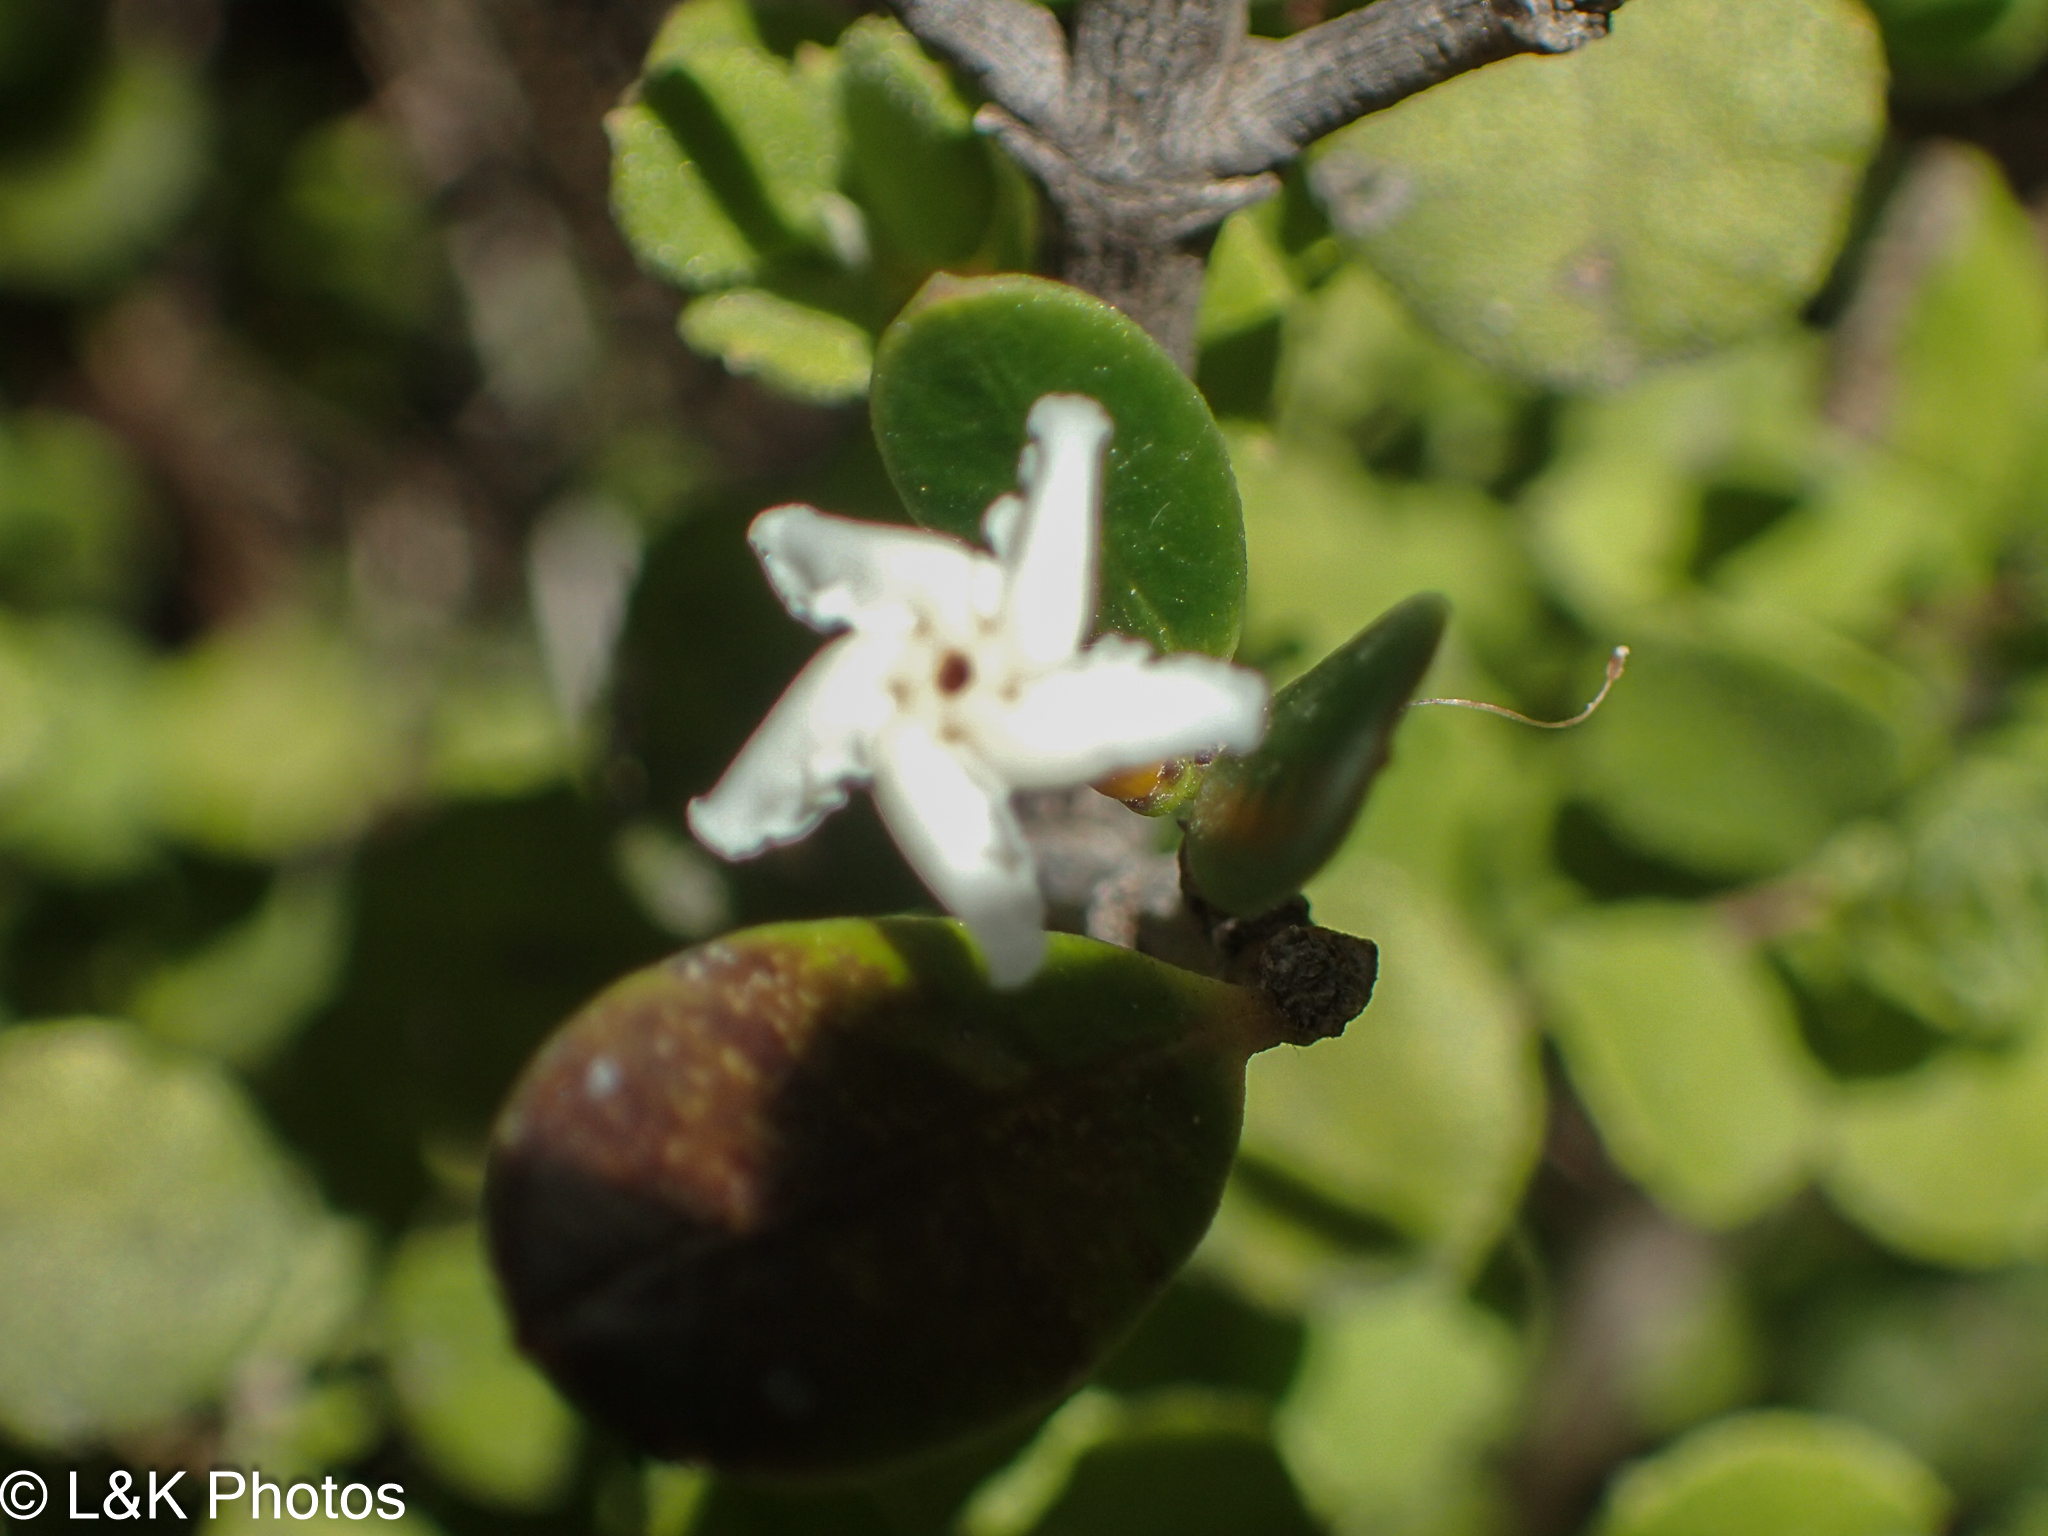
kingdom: Plantae
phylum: Tracheophyta
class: Magnoliopsida
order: Gentianales
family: Apocynaceae
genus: Alyxia
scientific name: Alyxia buxifolia
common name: Dysentery-bush
